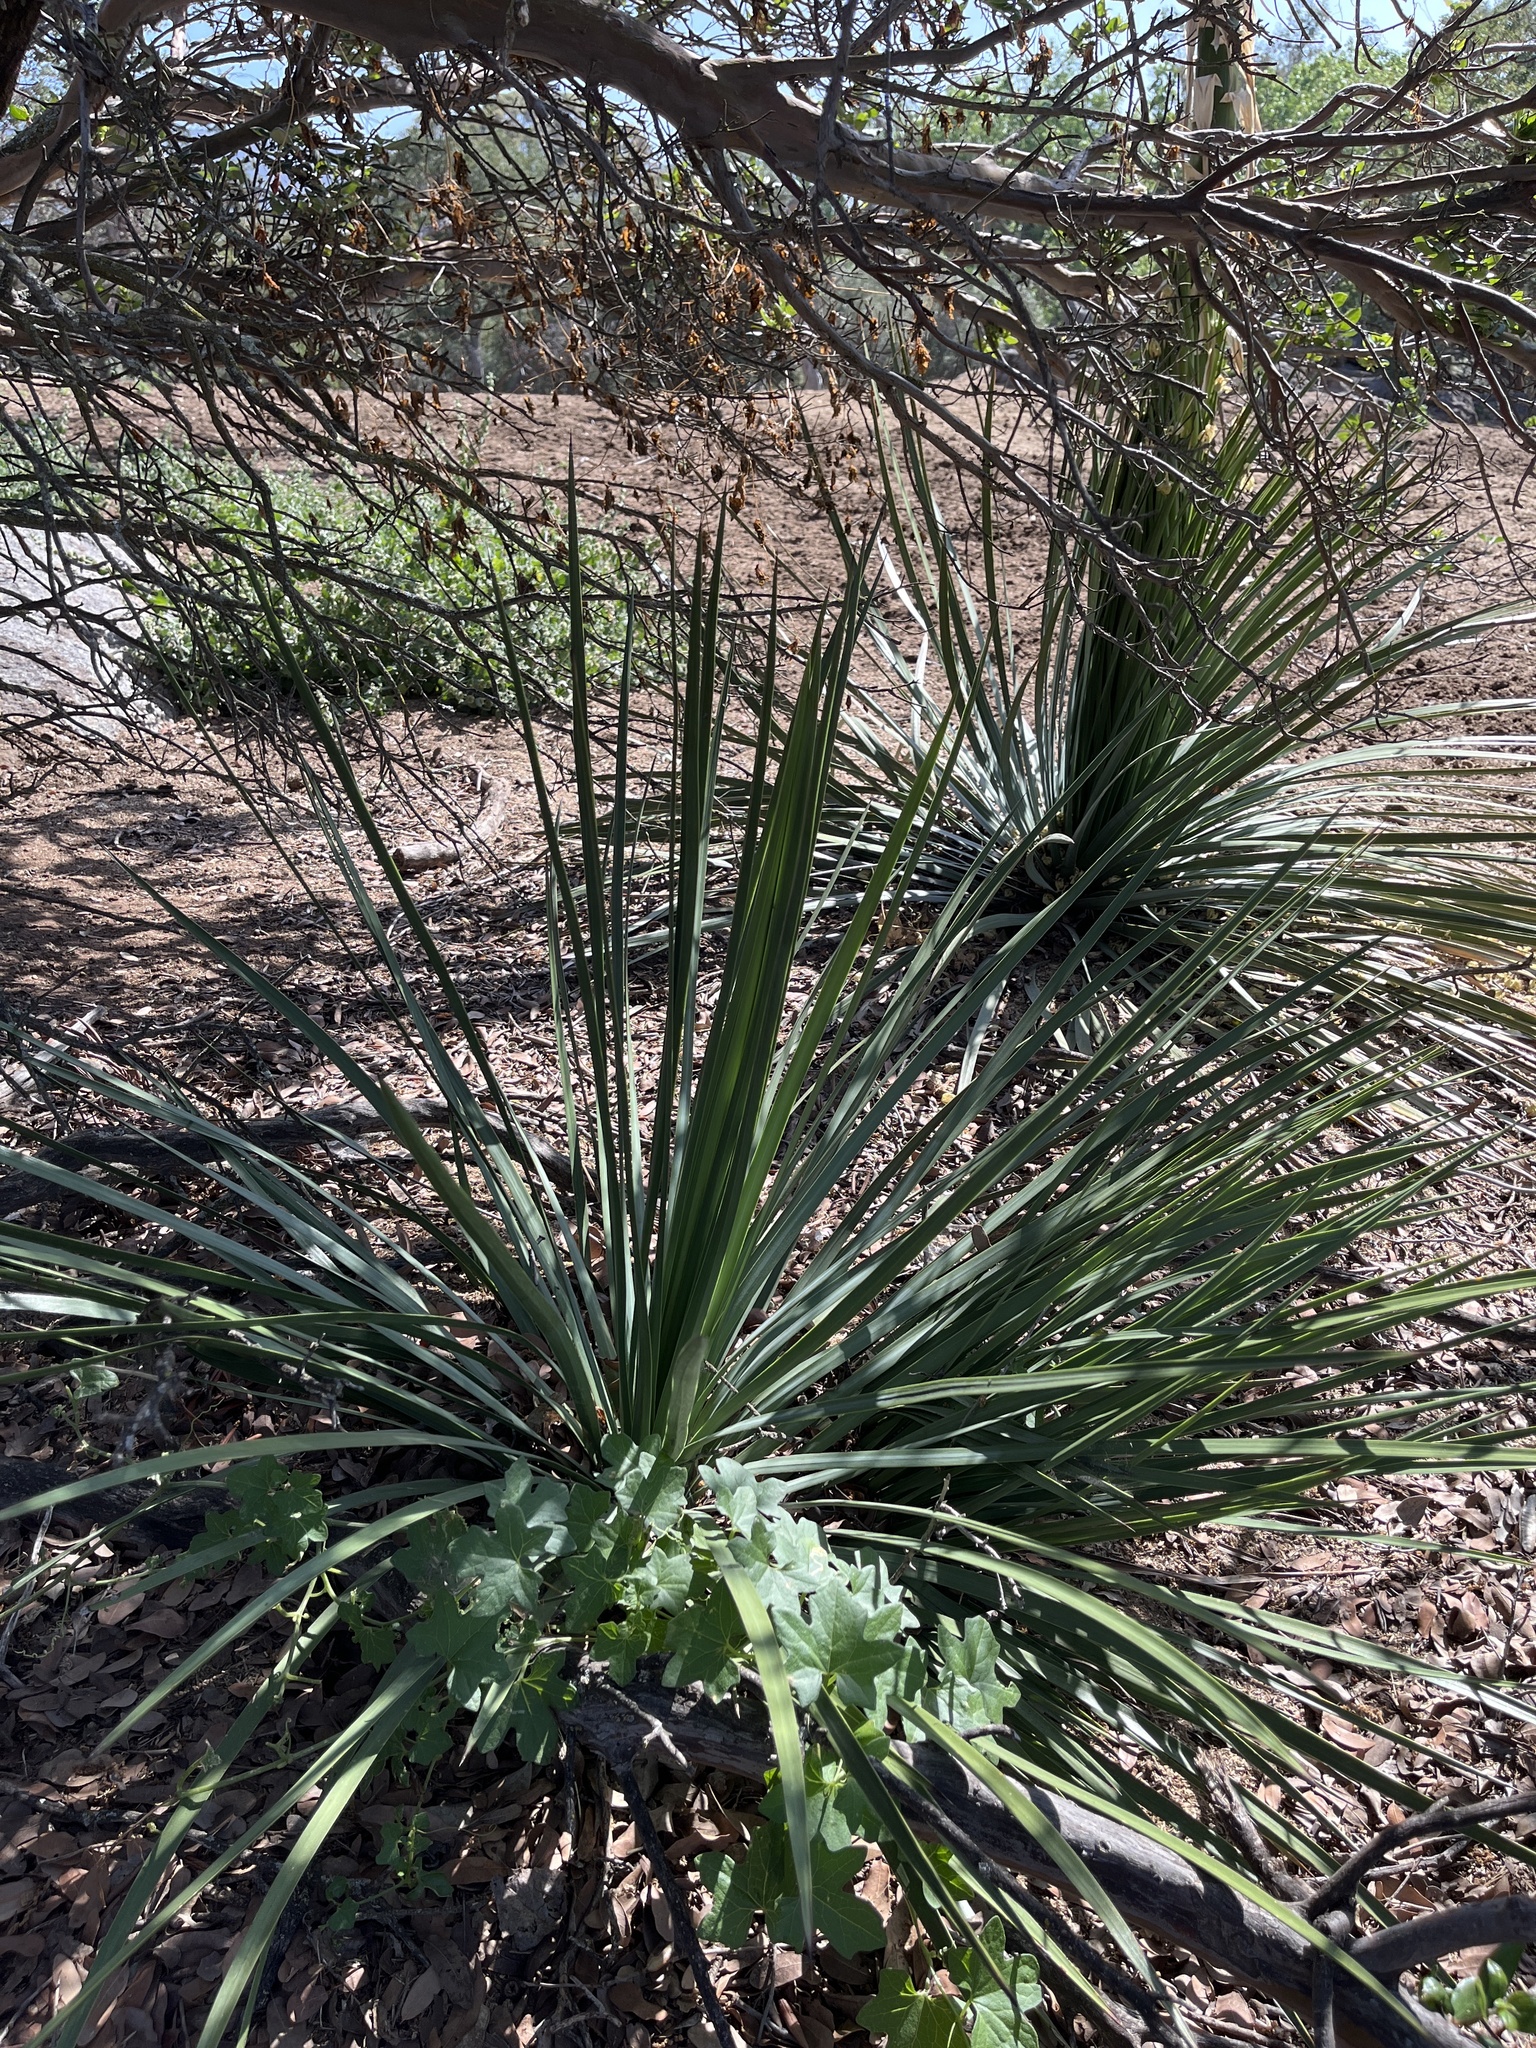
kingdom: Plantae
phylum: Tracheophyta
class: Liliopsida
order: Asparagales
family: Asparagaceae
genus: Hesperoyucca
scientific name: Hesperoyucca whipplei
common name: Our lord's-candle
